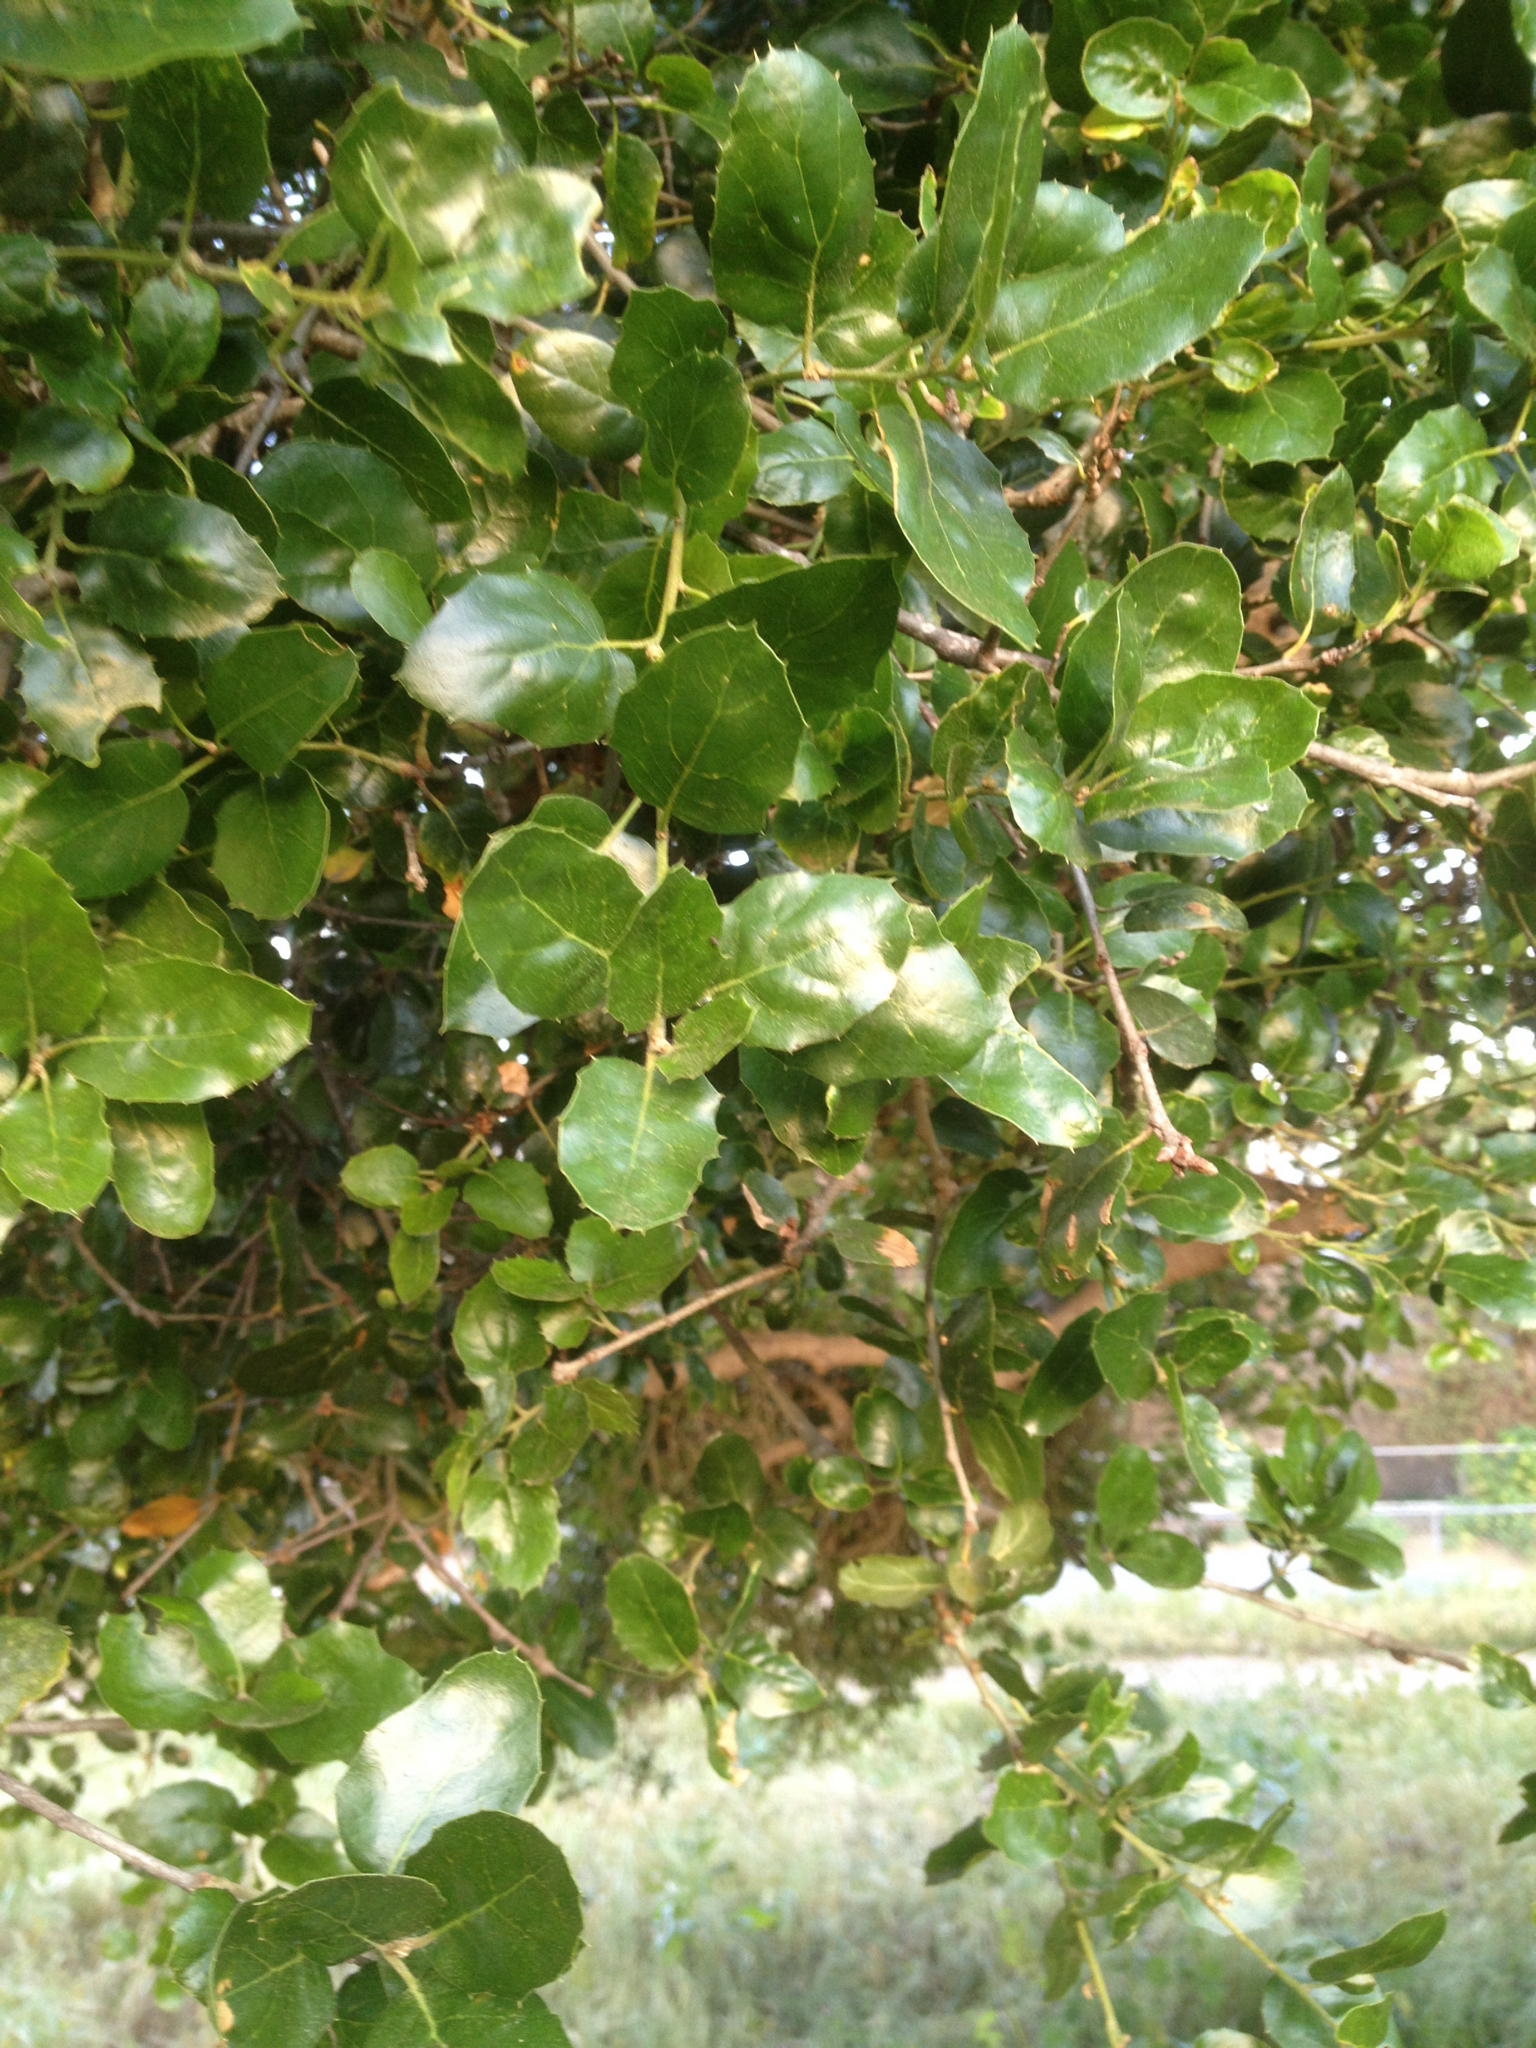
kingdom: Plantae
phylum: Tracheophyta
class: Magnoliopsida
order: Fagales
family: Fagaceae
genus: Quercus
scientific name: Quercus agrifolia
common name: California live oak
